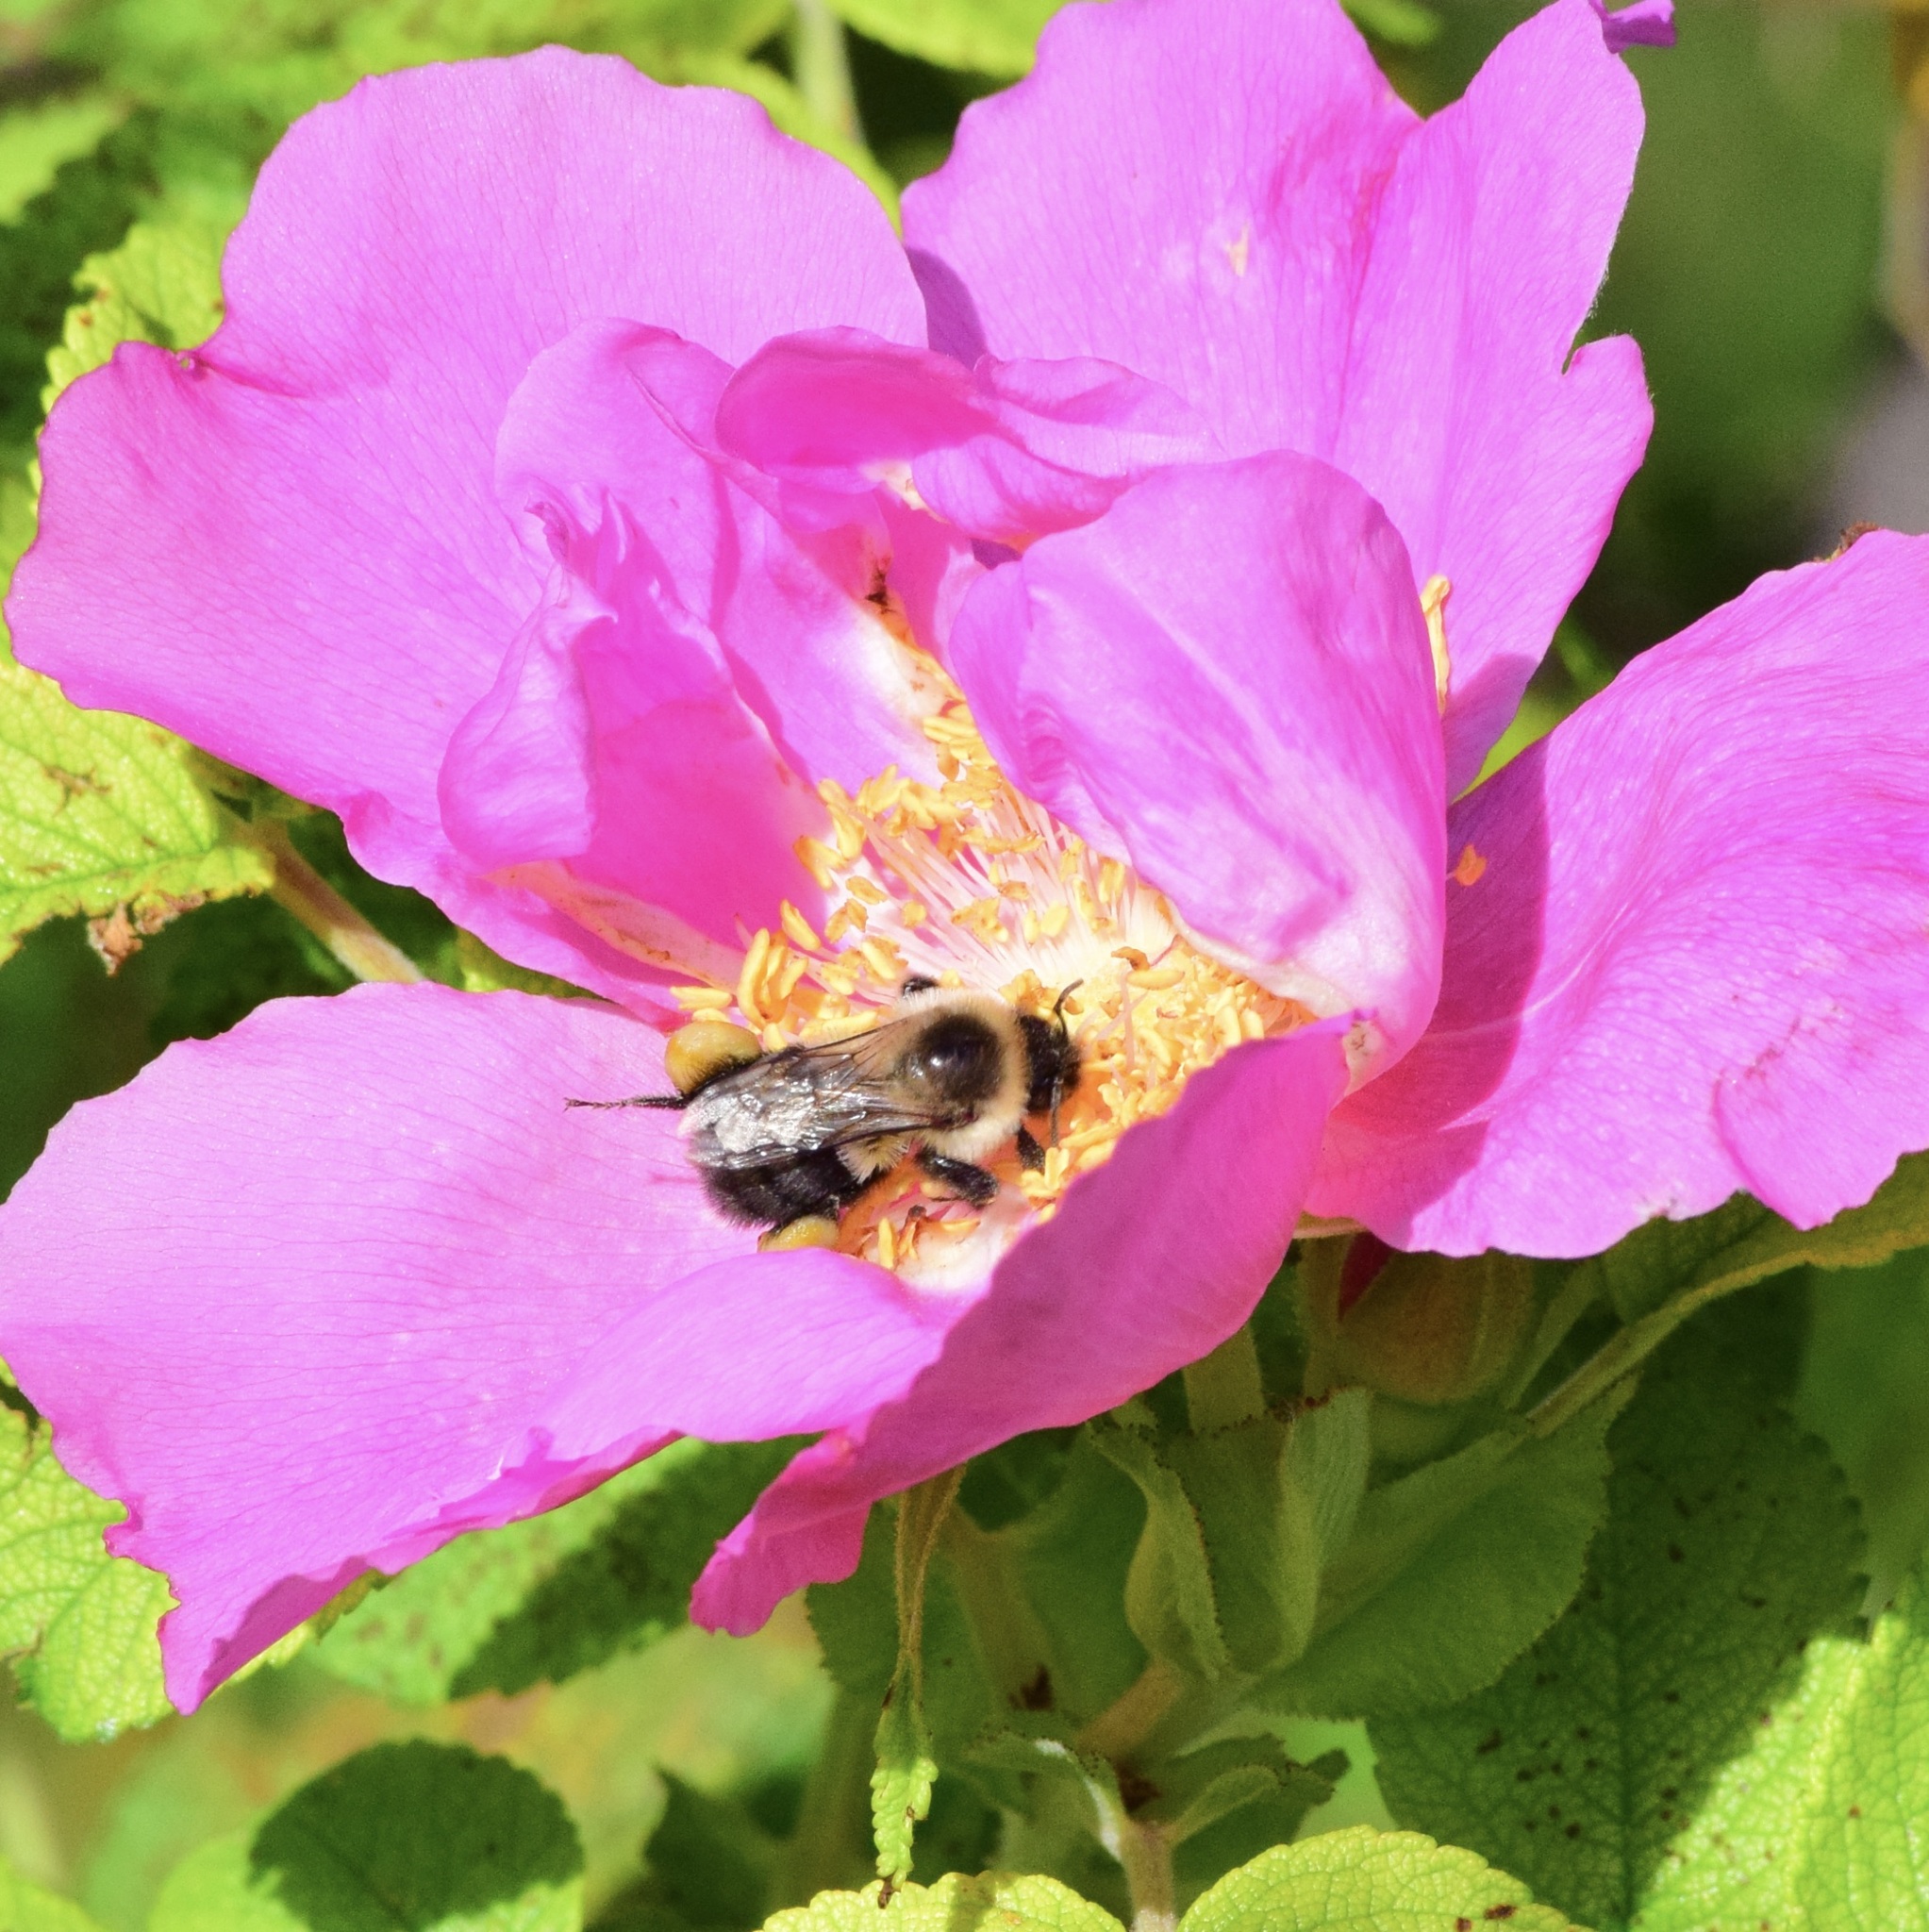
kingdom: Animalia
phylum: Arthropoda
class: Insecta
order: Hymenoptera
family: Apidae
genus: Bombus
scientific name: Bombus impatiens
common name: Common eastern bumble bee
